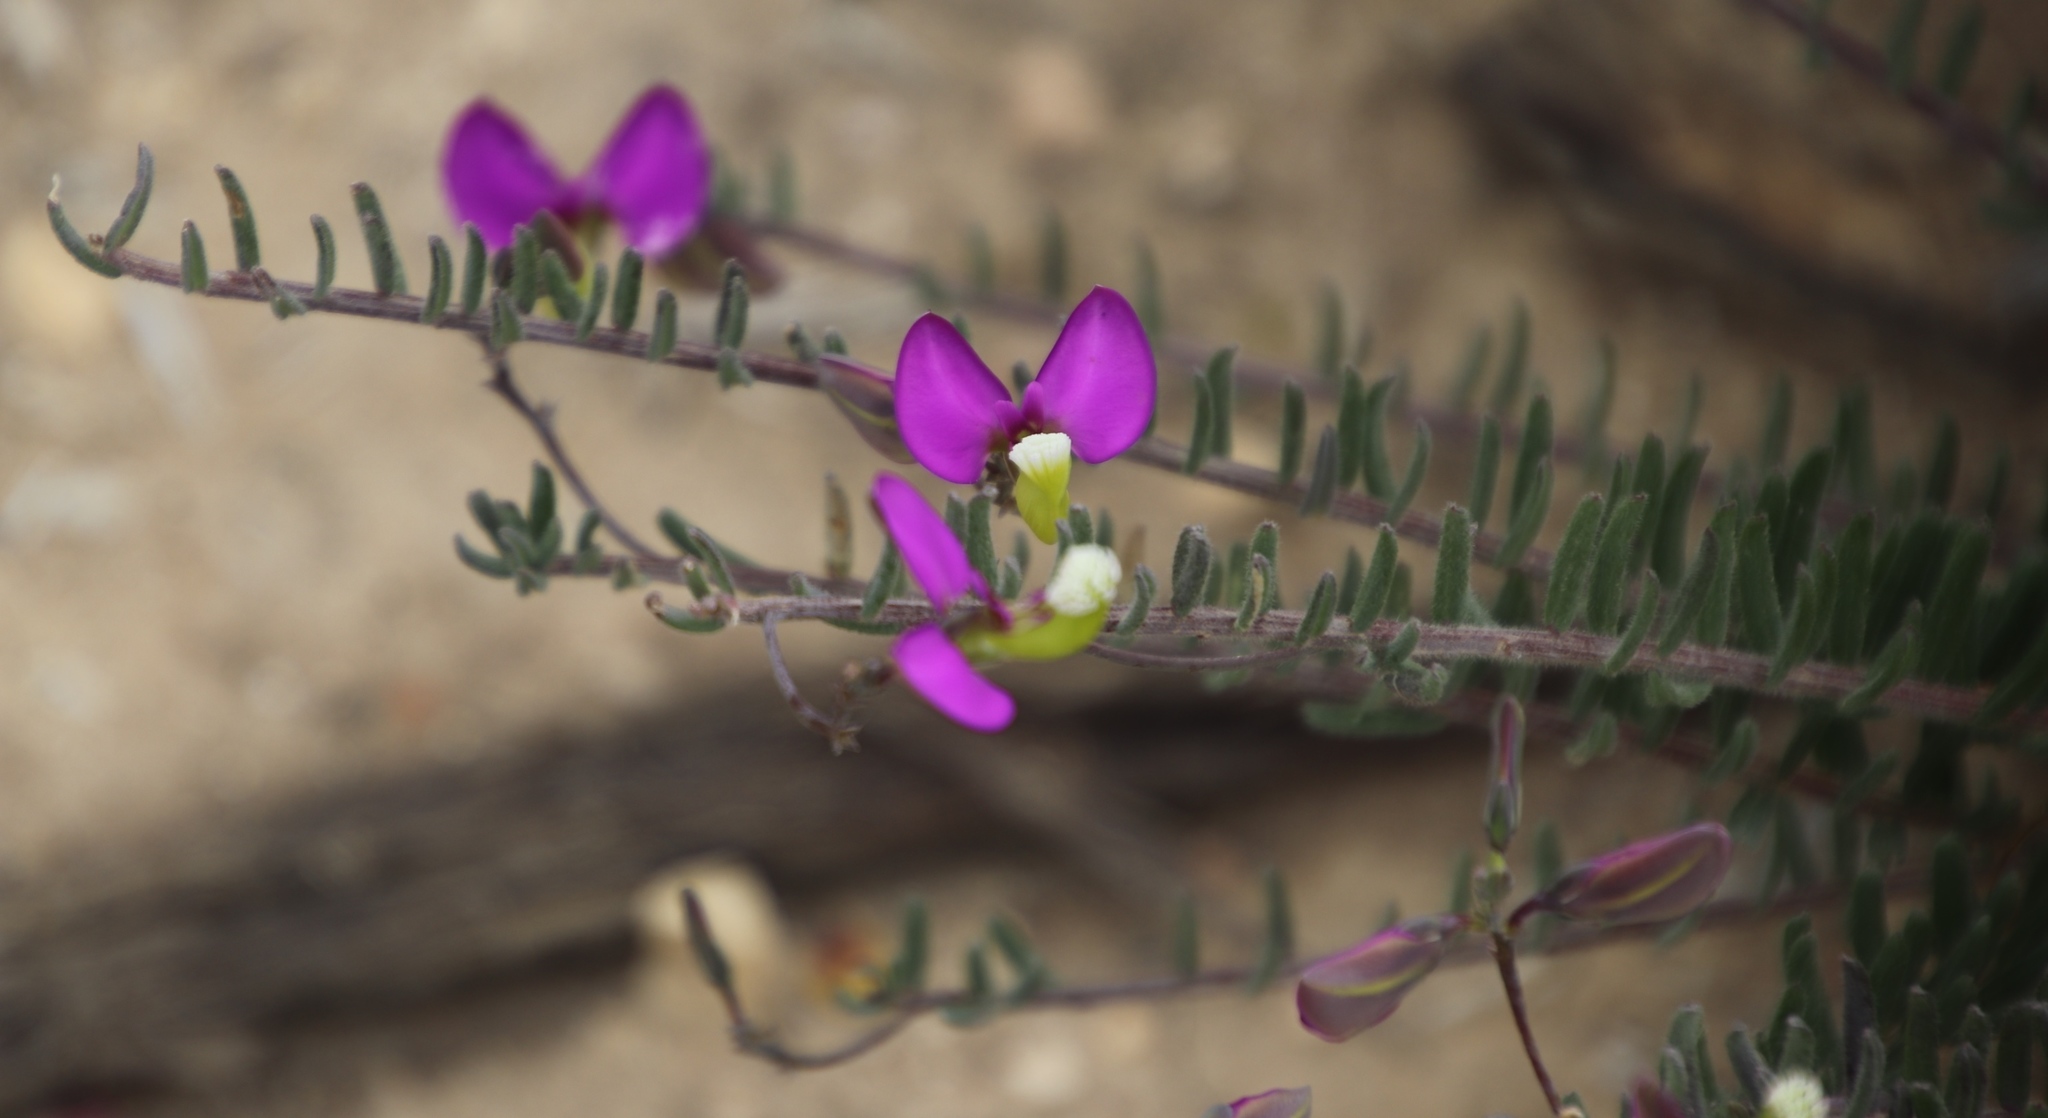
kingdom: Plantae
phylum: Tracheophyta
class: Magnoliopsida
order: Fabales
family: Polygalaceae
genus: Polygala
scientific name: Polygala peduncularis
